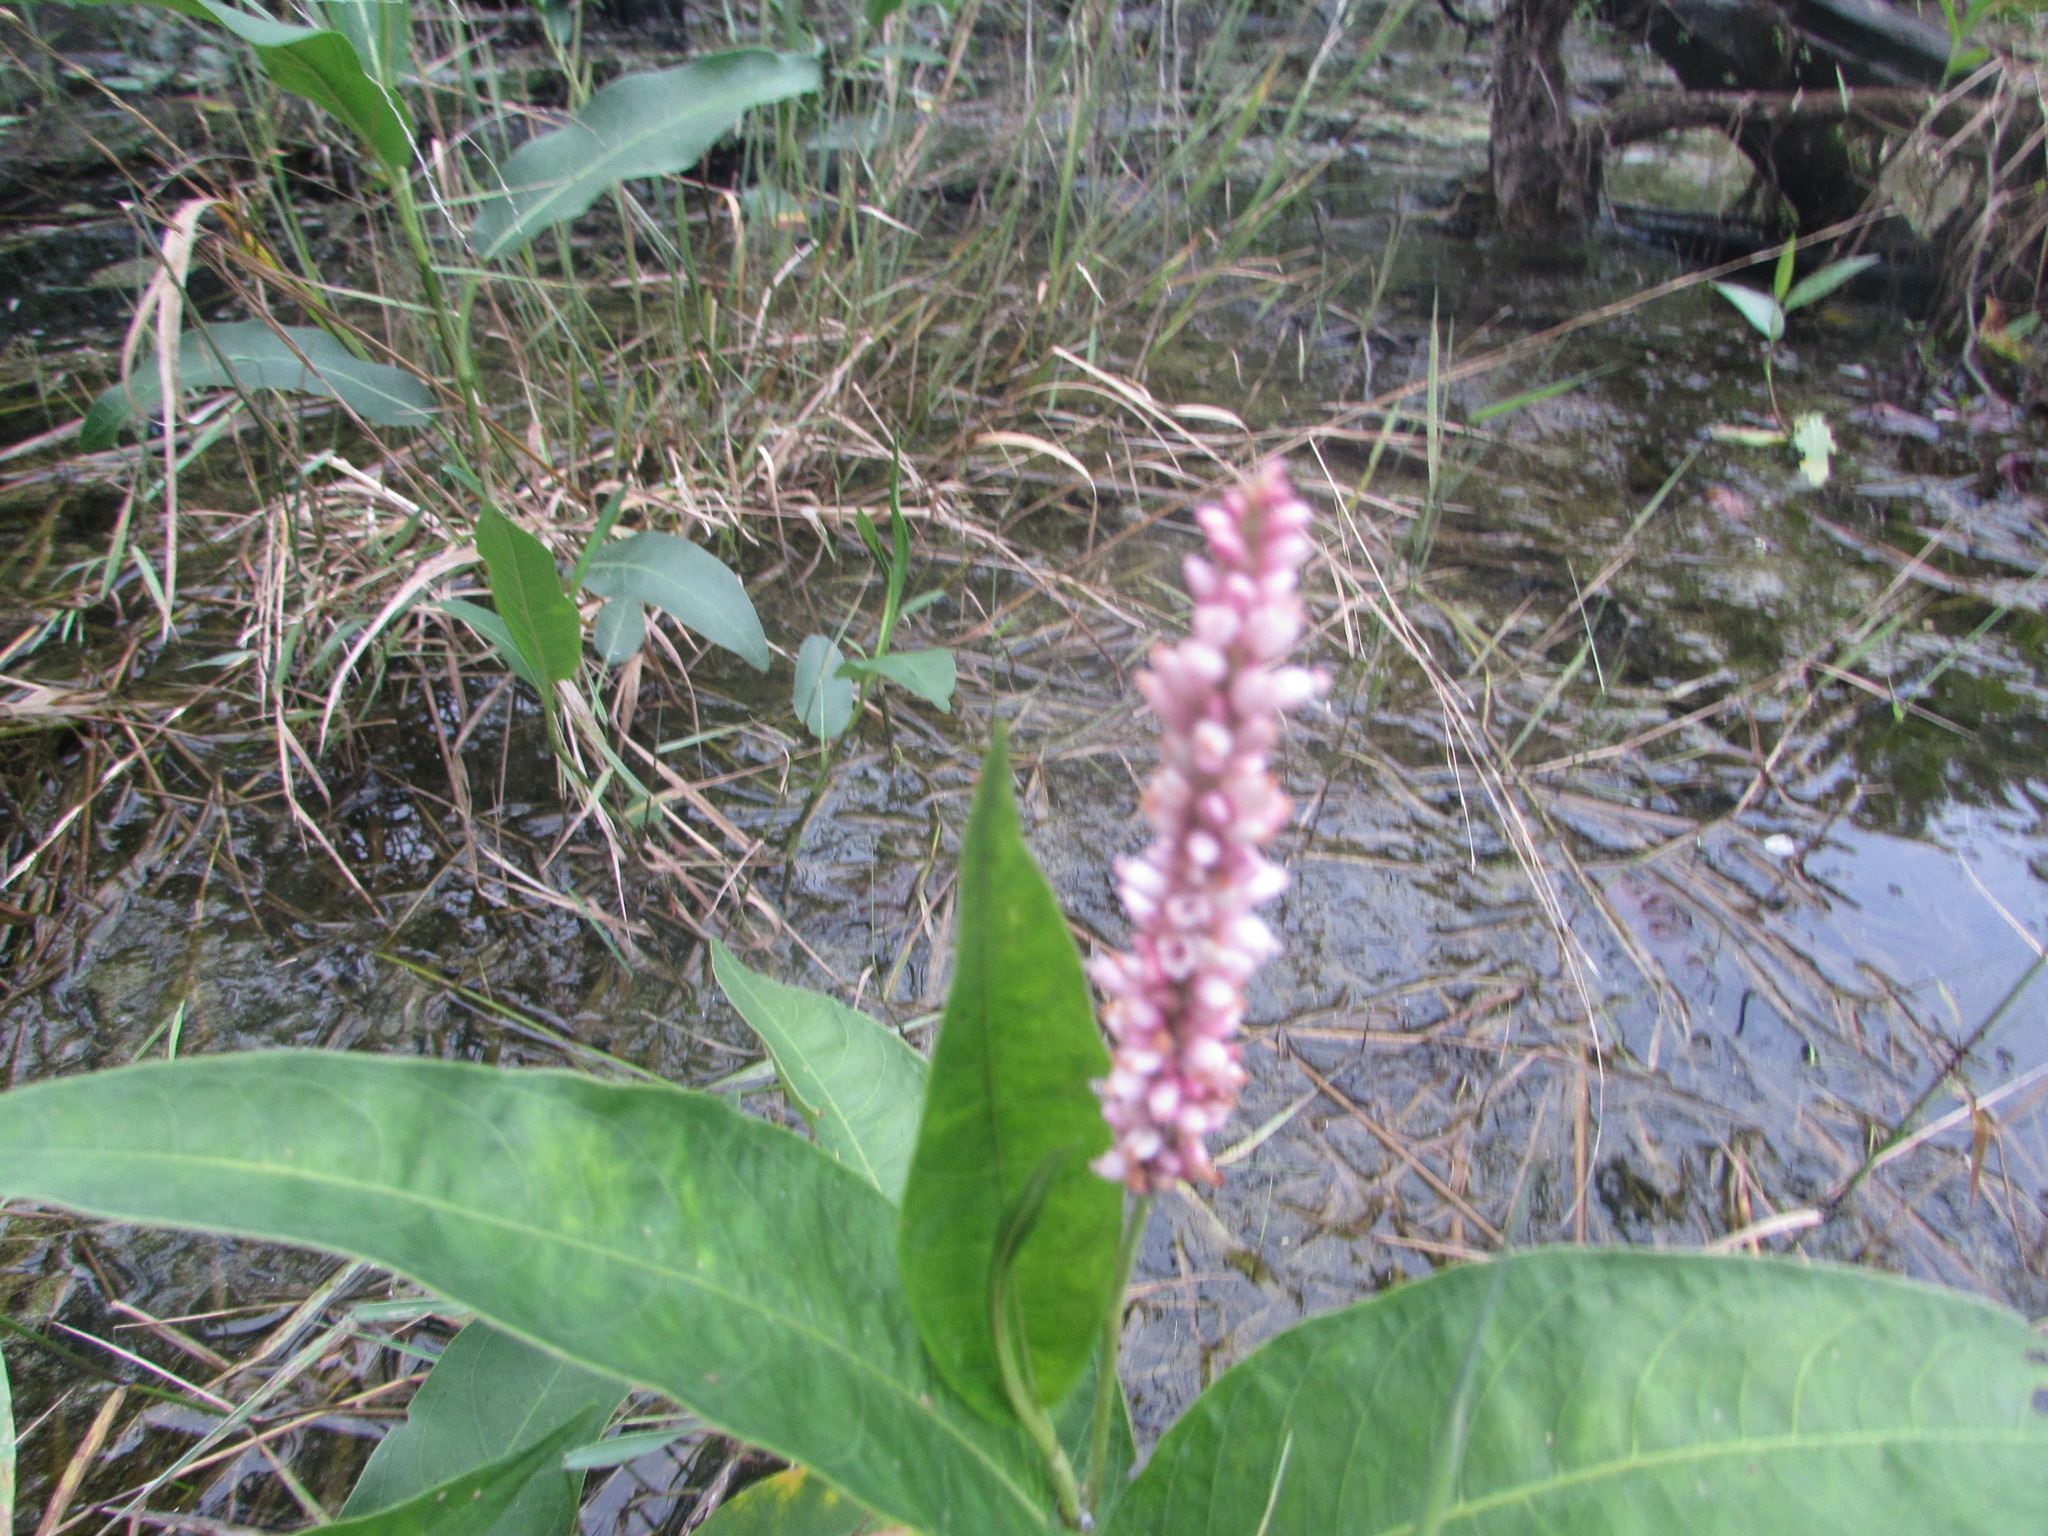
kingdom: Plantae
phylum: Tracheophyta
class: Magnoliopsida
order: Caryophyllales
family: Polygonaceae
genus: Persicaria
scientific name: Persicaria amphibia
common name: Amphibious bistort
